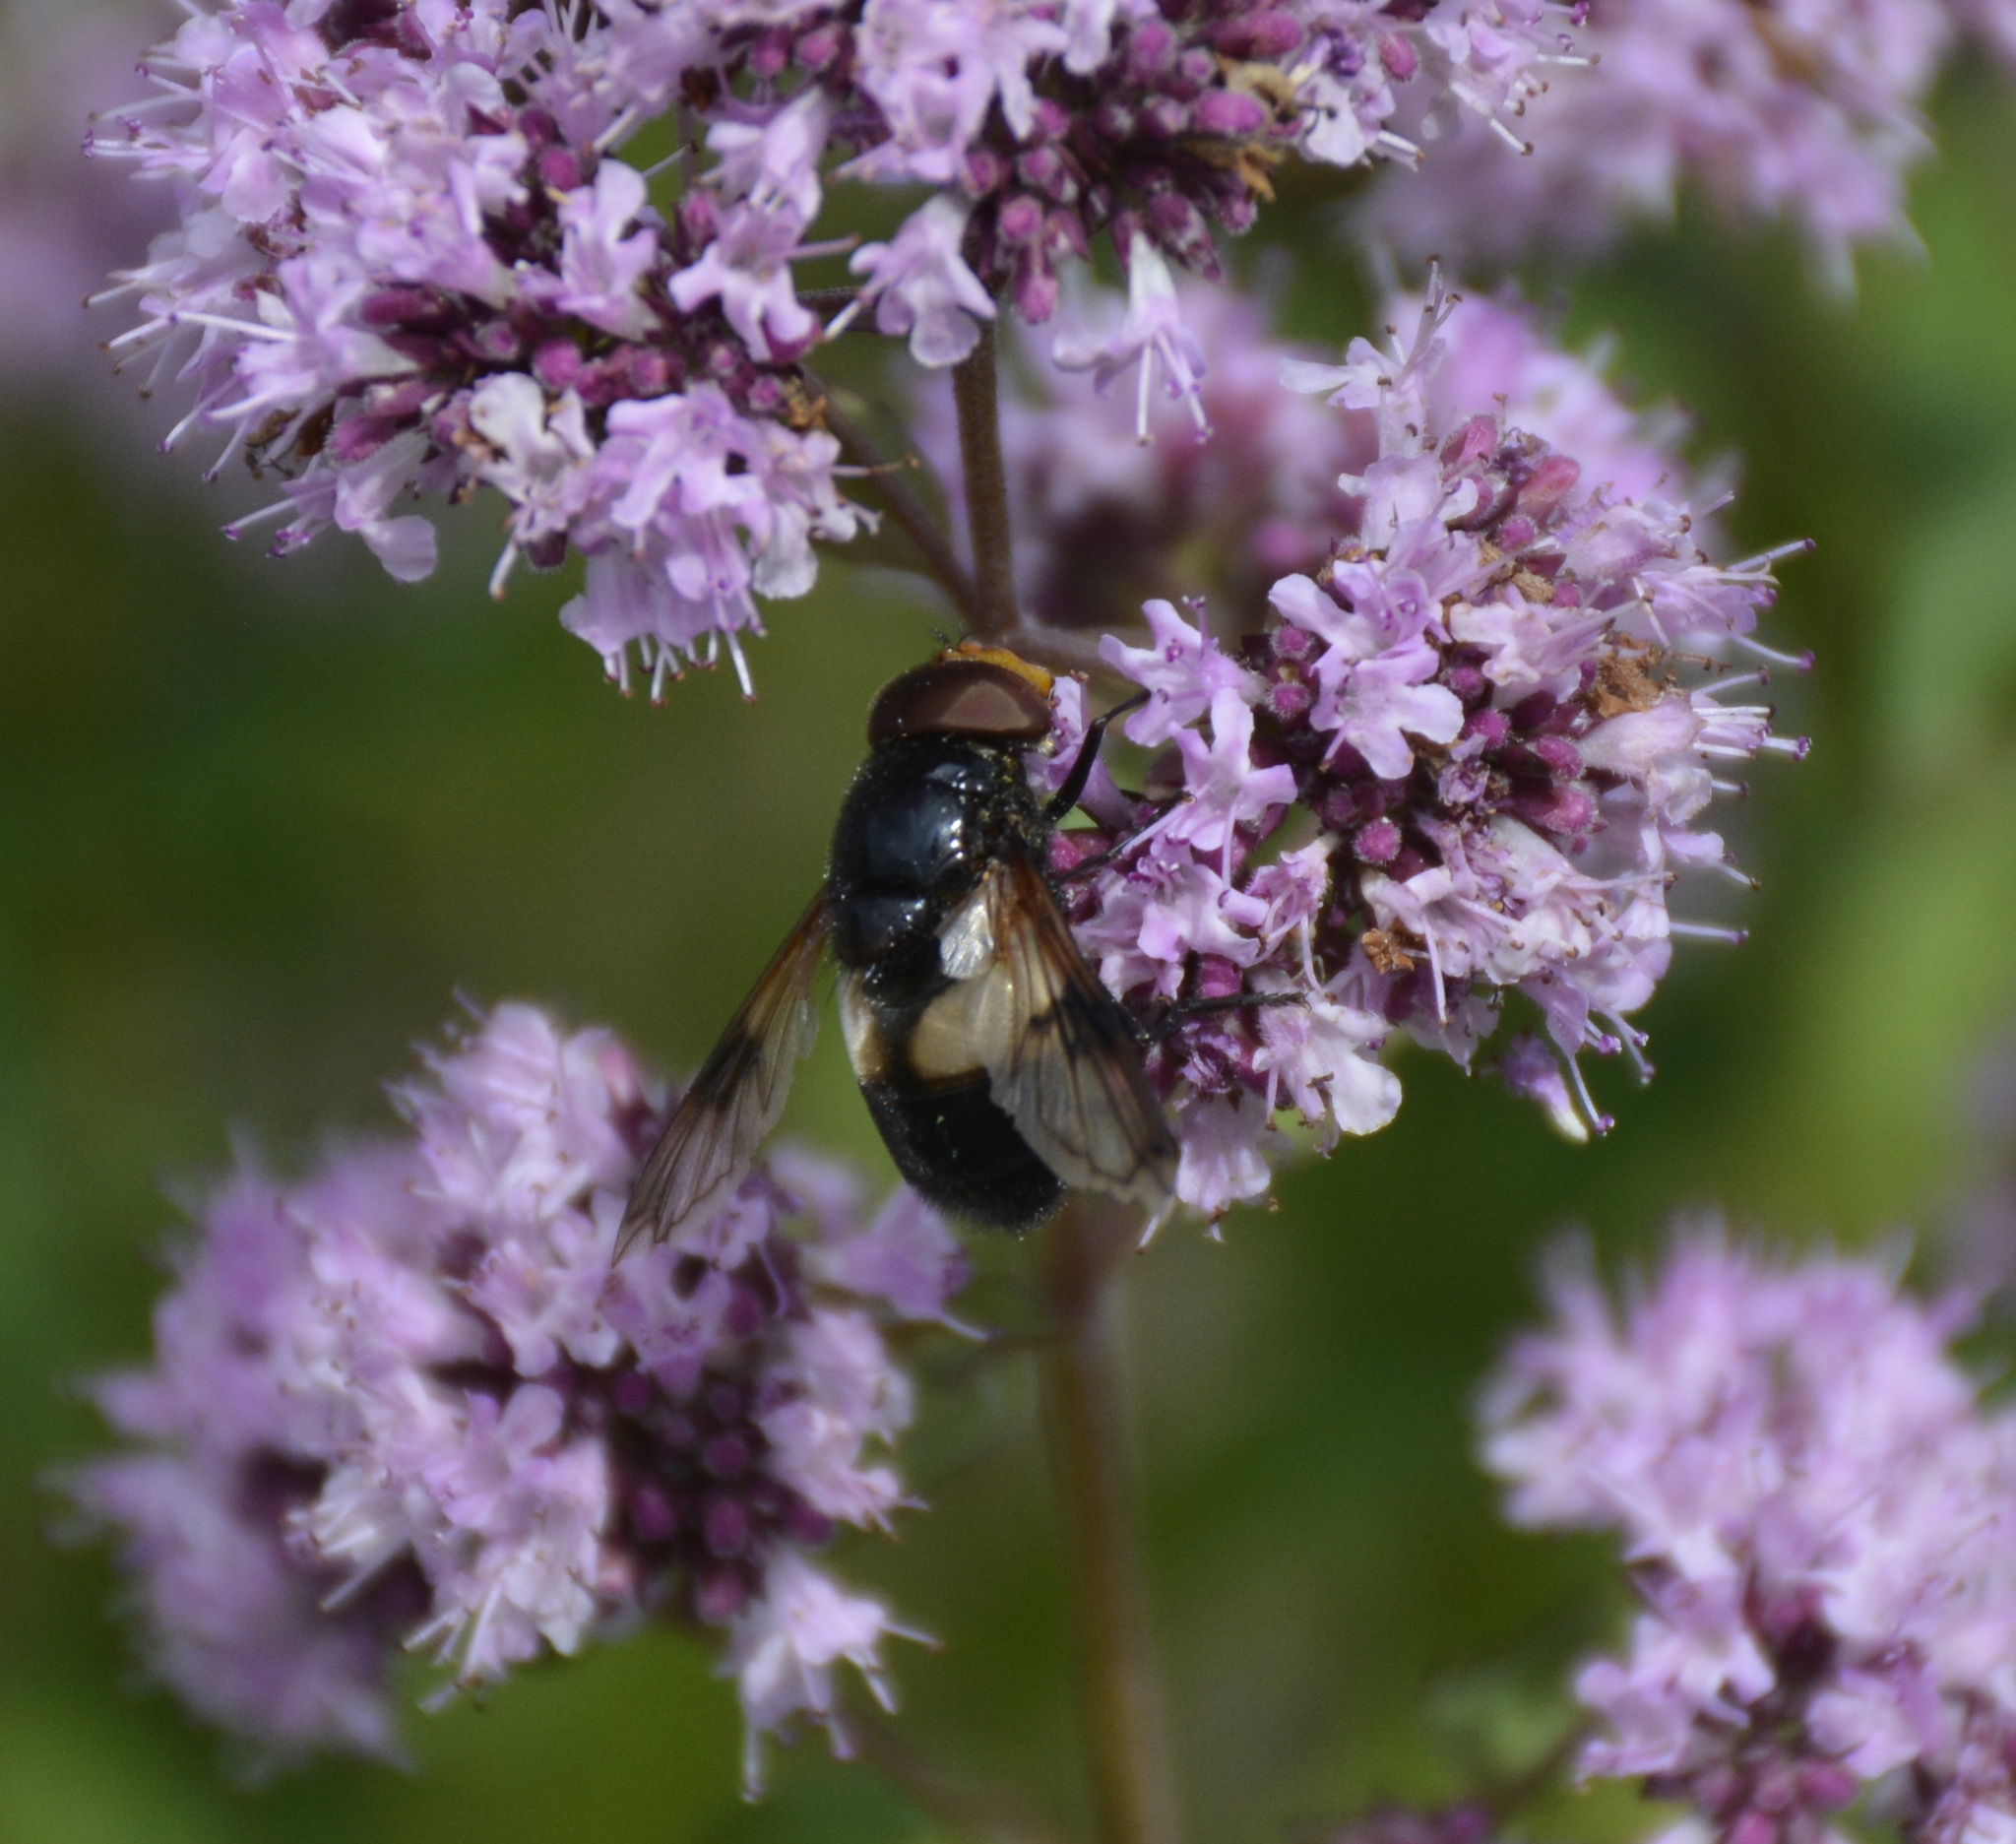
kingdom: Animalia
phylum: Arthropoda
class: Insecta
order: Diptera
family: Syrphidae
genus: Volucella
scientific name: Volucella pellucens
